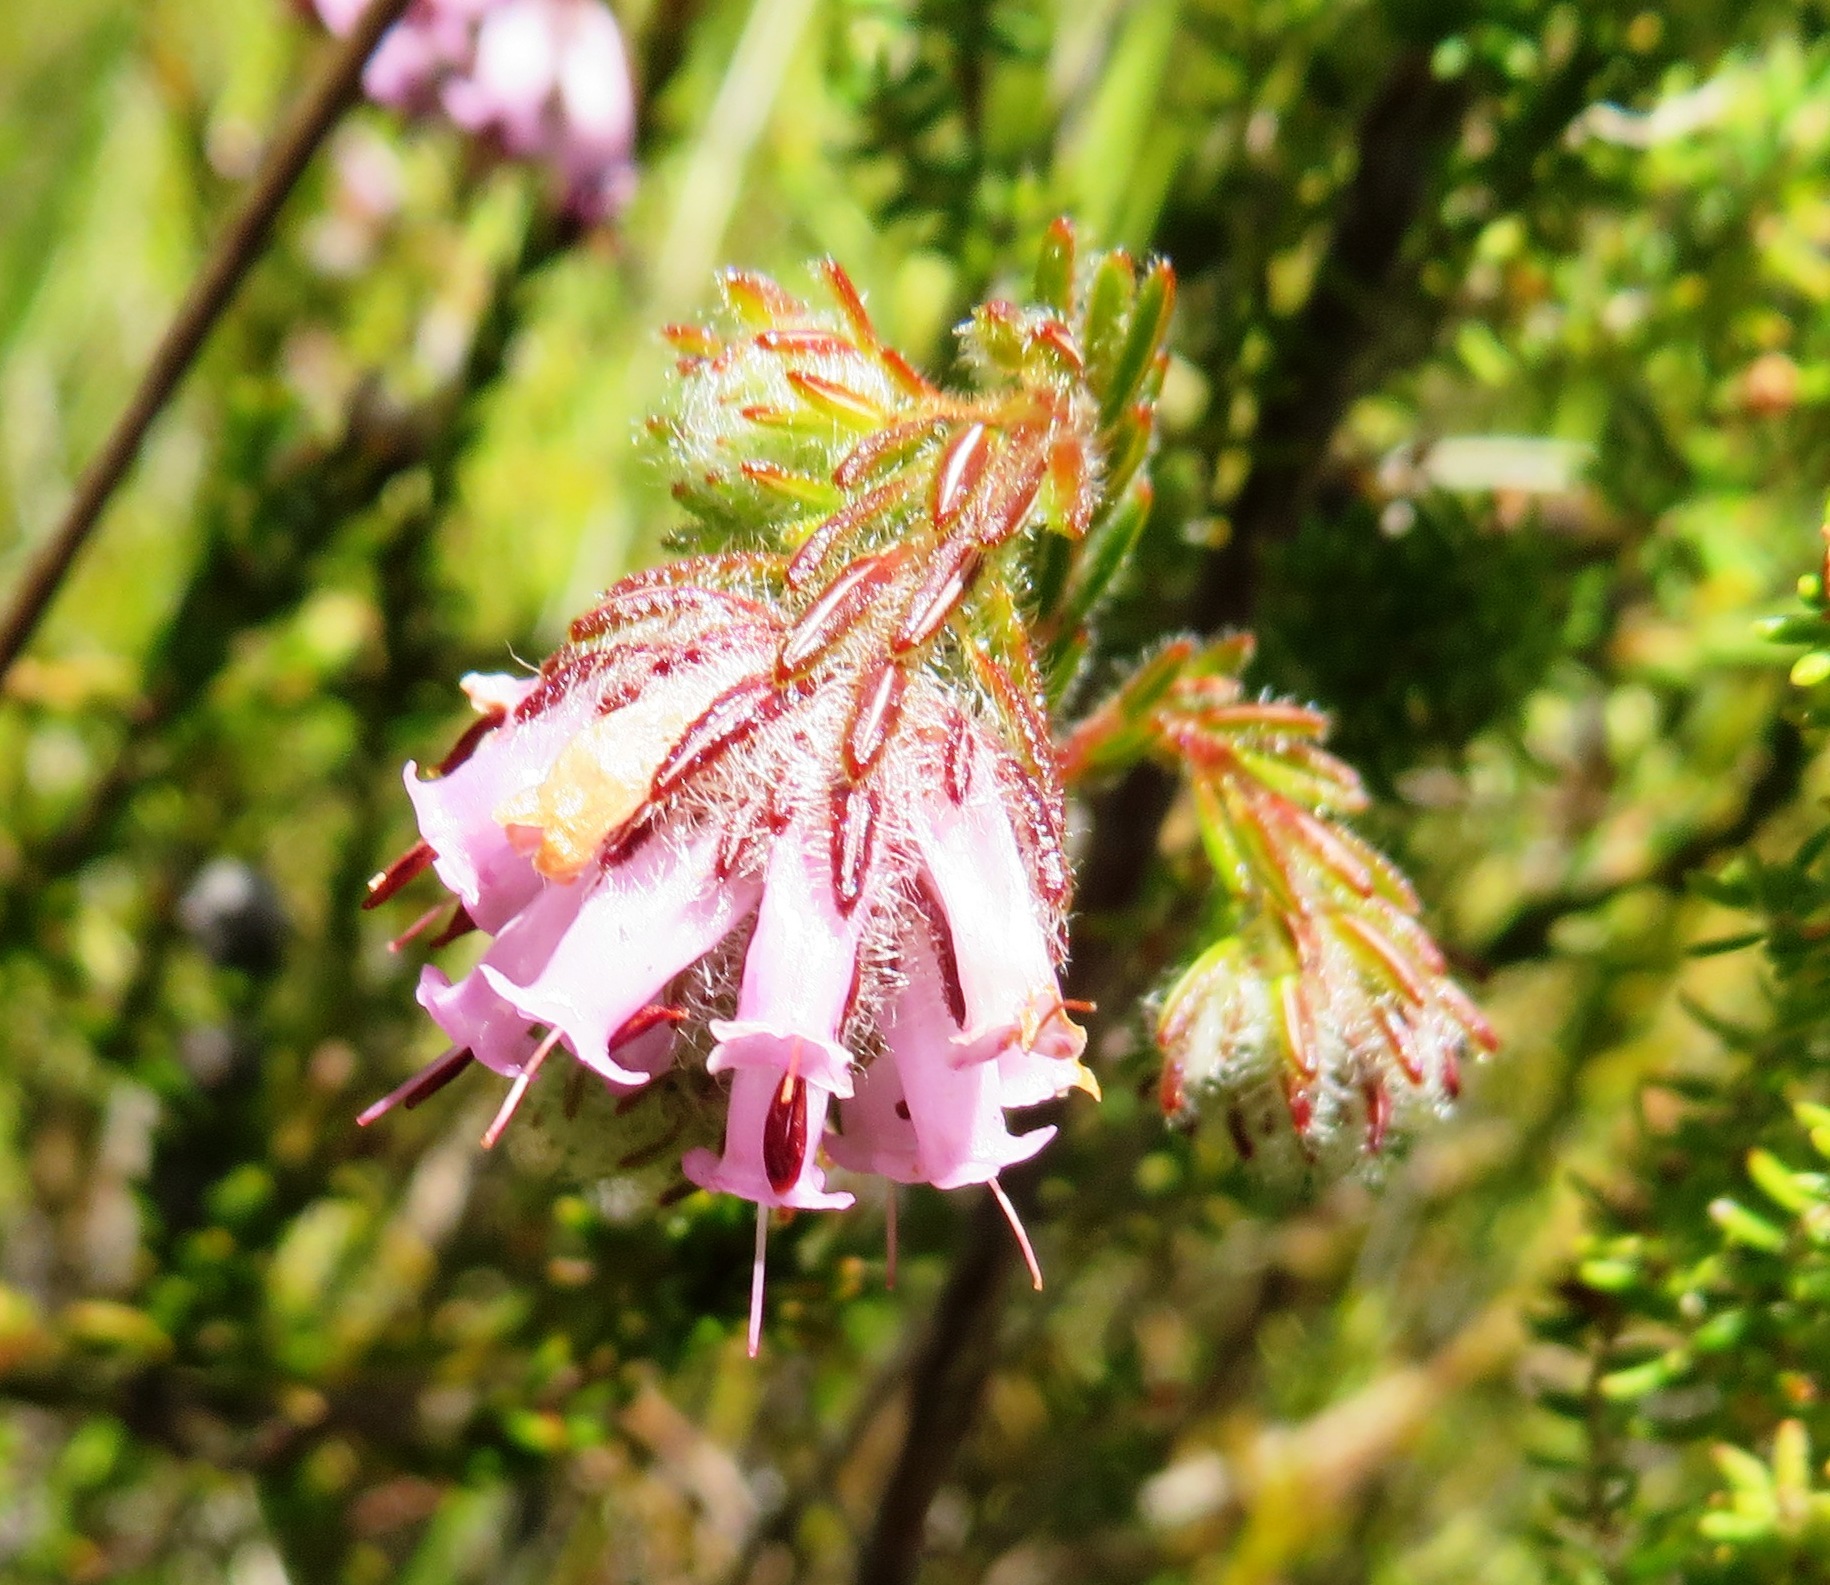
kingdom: Plantae
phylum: Tracheophyta
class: Magnoliopsida
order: Ericales
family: Ericaceae
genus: Erica
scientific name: Erica barbigeroides
